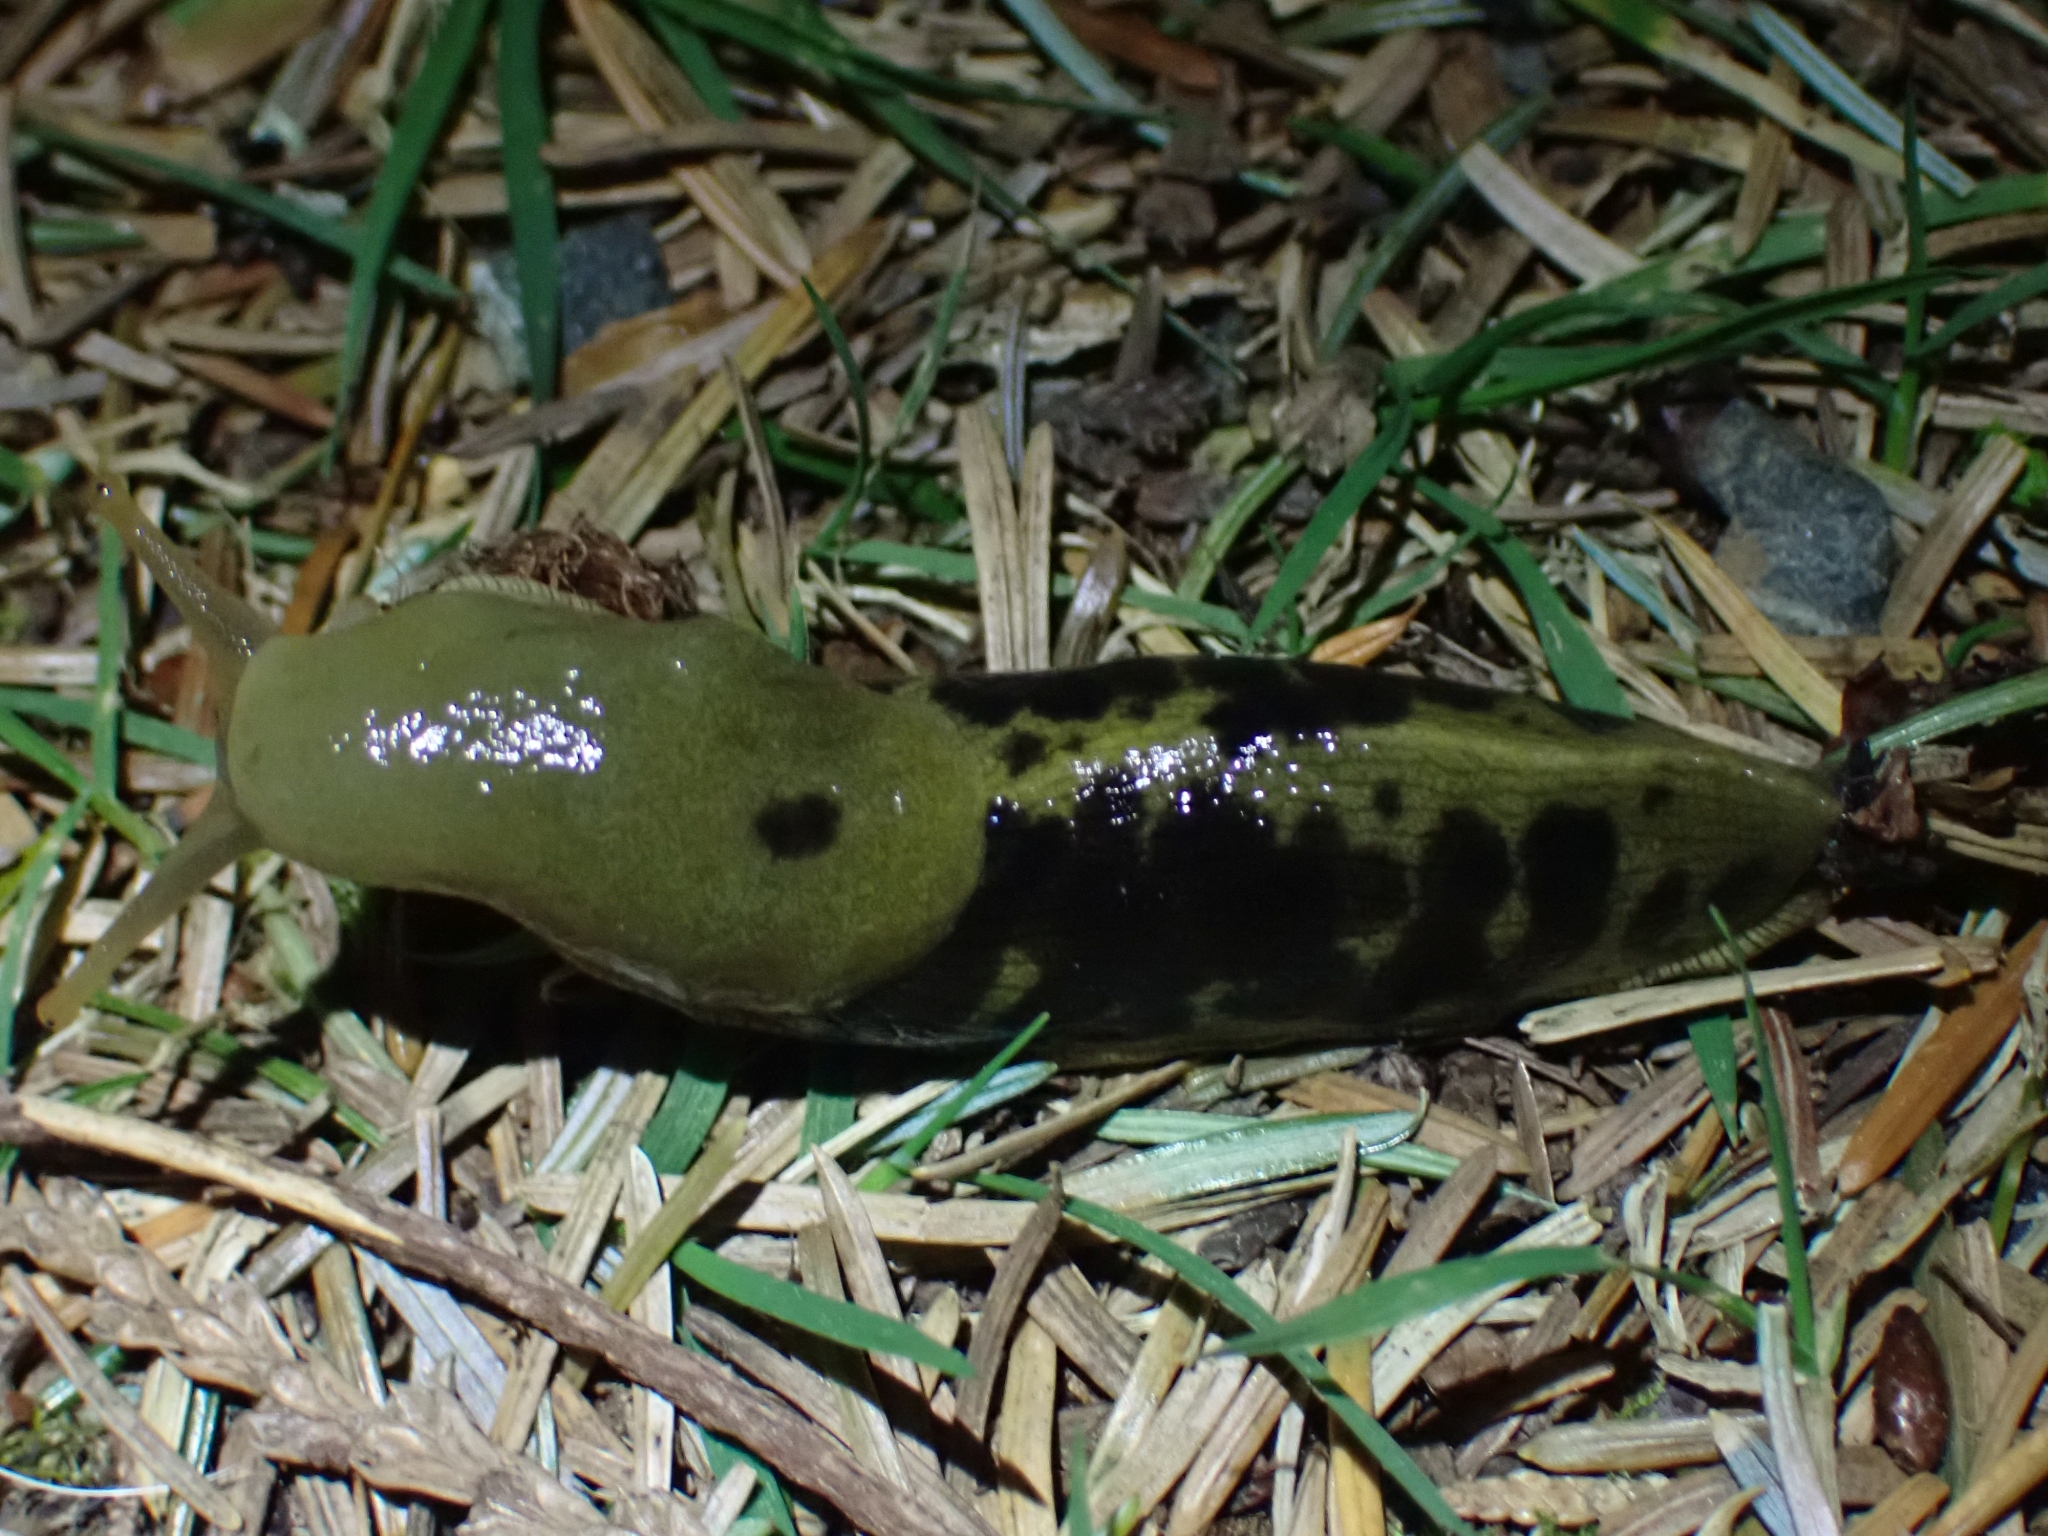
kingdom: Animalia
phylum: Mollusca
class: Gastropoda
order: Stylommatophora
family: Ariolimacidae
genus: Ariolimax
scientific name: Ariolimax columbianus
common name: Pacific banana slug
